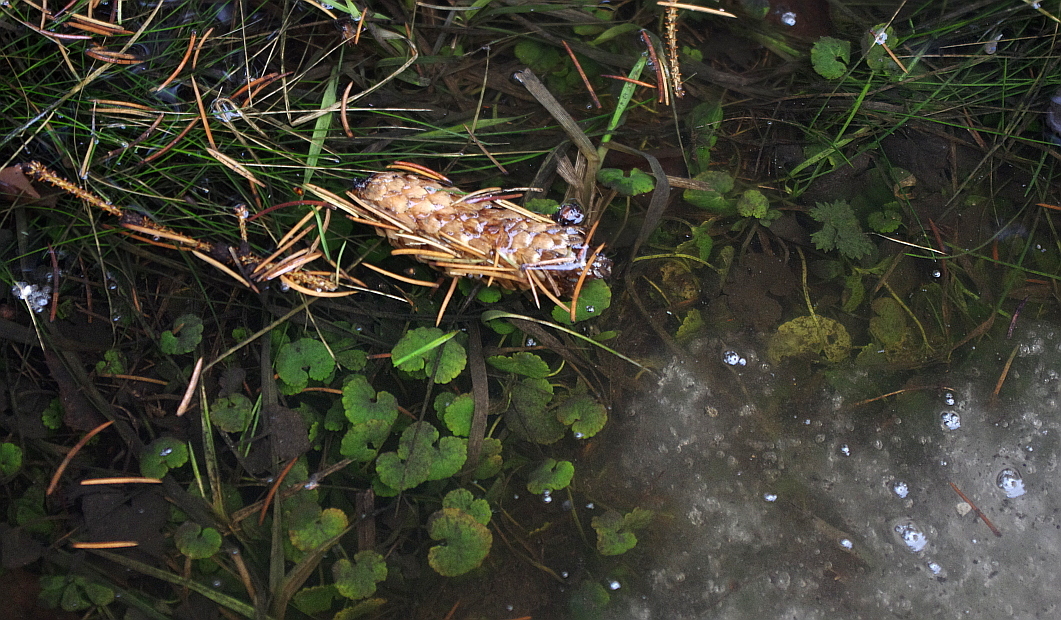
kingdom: Plantae
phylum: Tracheophyta
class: Magnoliopsida
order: Lamiales
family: Lamiaceae
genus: Glechoma
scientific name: Glechoma hederacea
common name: Ground ivy
